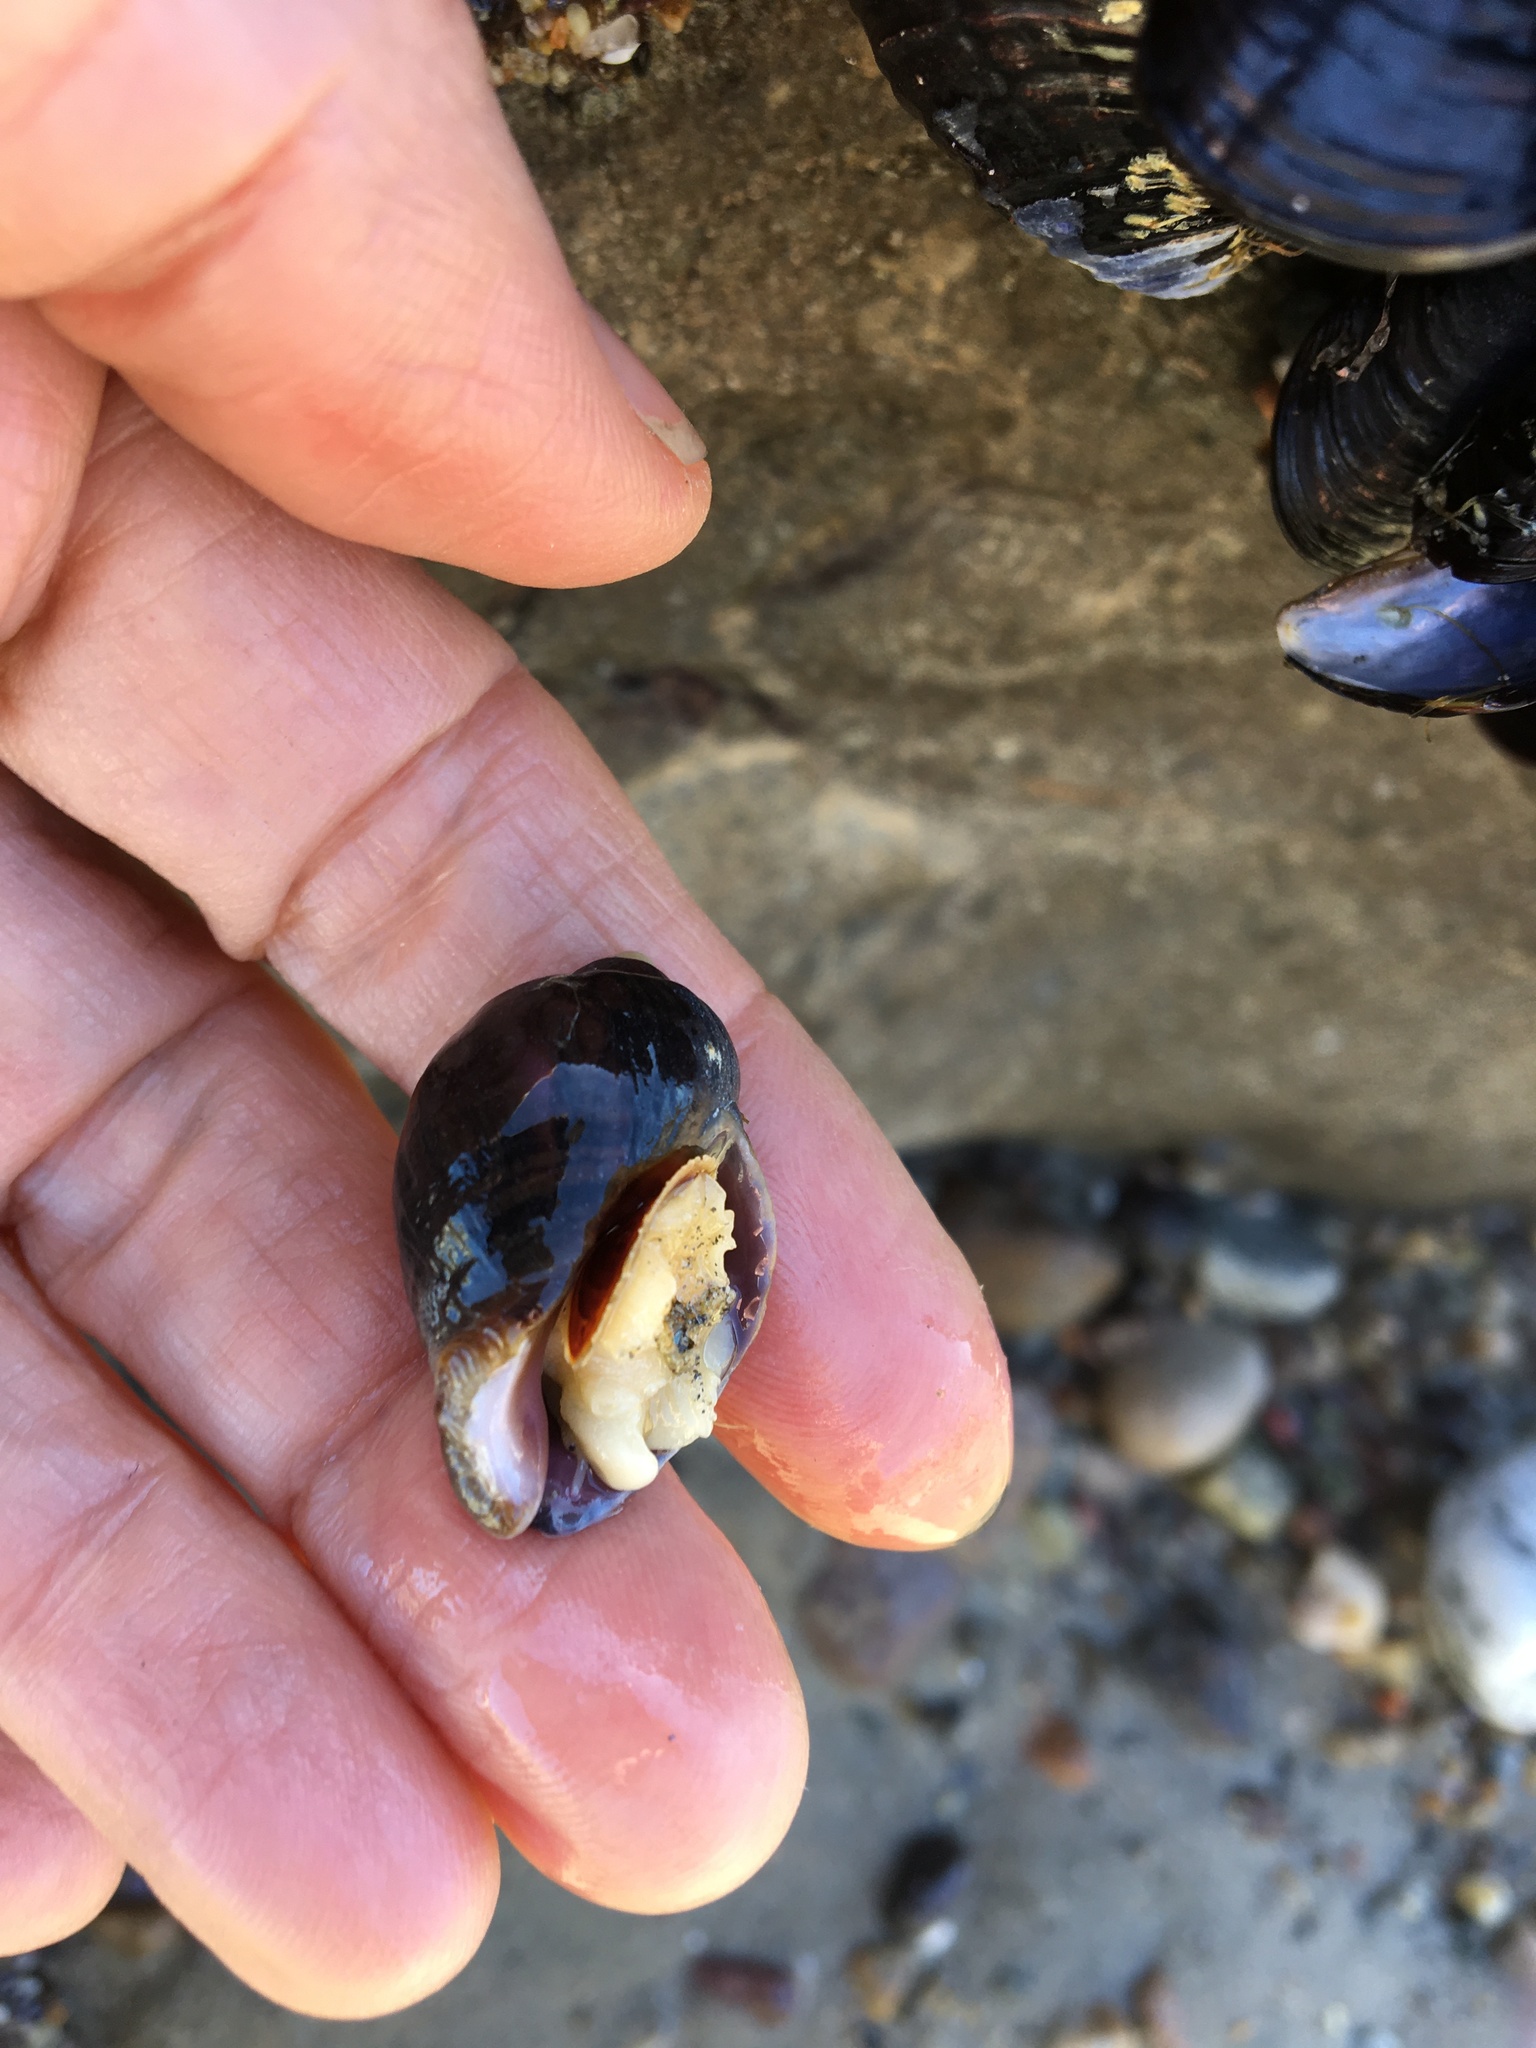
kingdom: Animalia
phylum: Mollusca
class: Gastropoda
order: Neogastropoda
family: Muricidae
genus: Nucella
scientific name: Nucella emarginata
